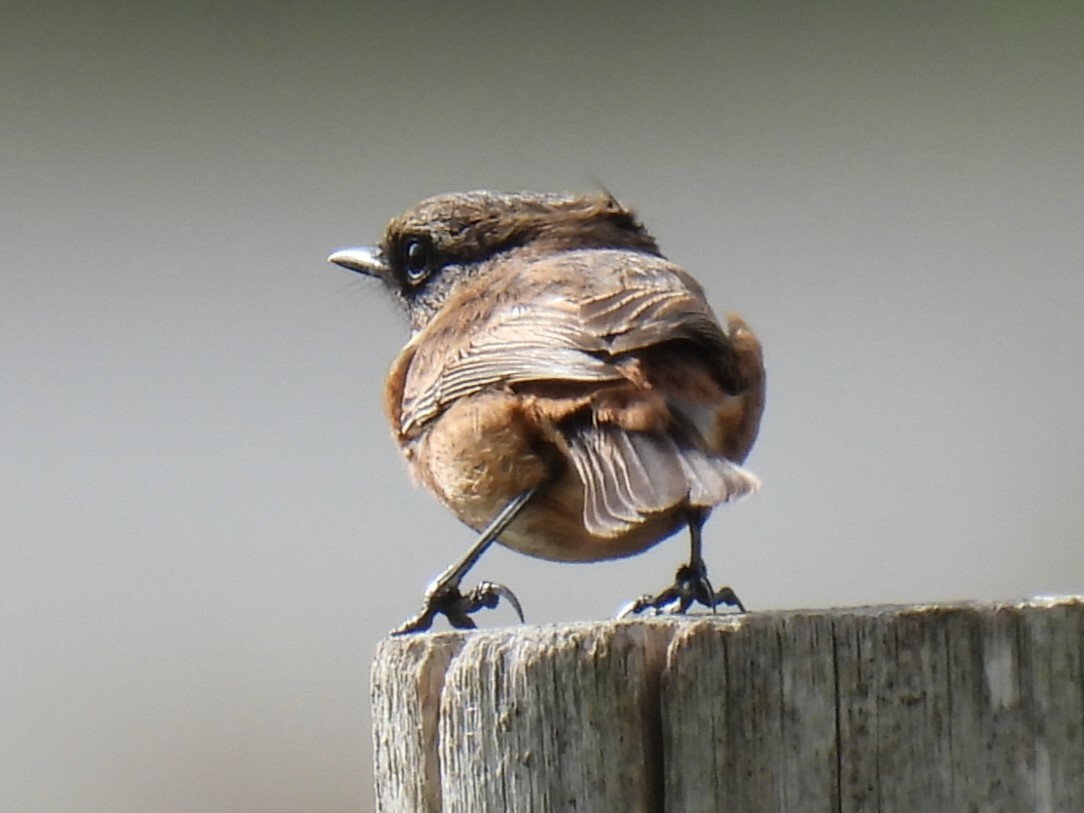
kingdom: Animalia
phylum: Chordata
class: Aves
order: Passeriformes
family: Muscicapidae
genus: Saxicola
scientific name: Saxicola rubicola
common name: European stonechat
